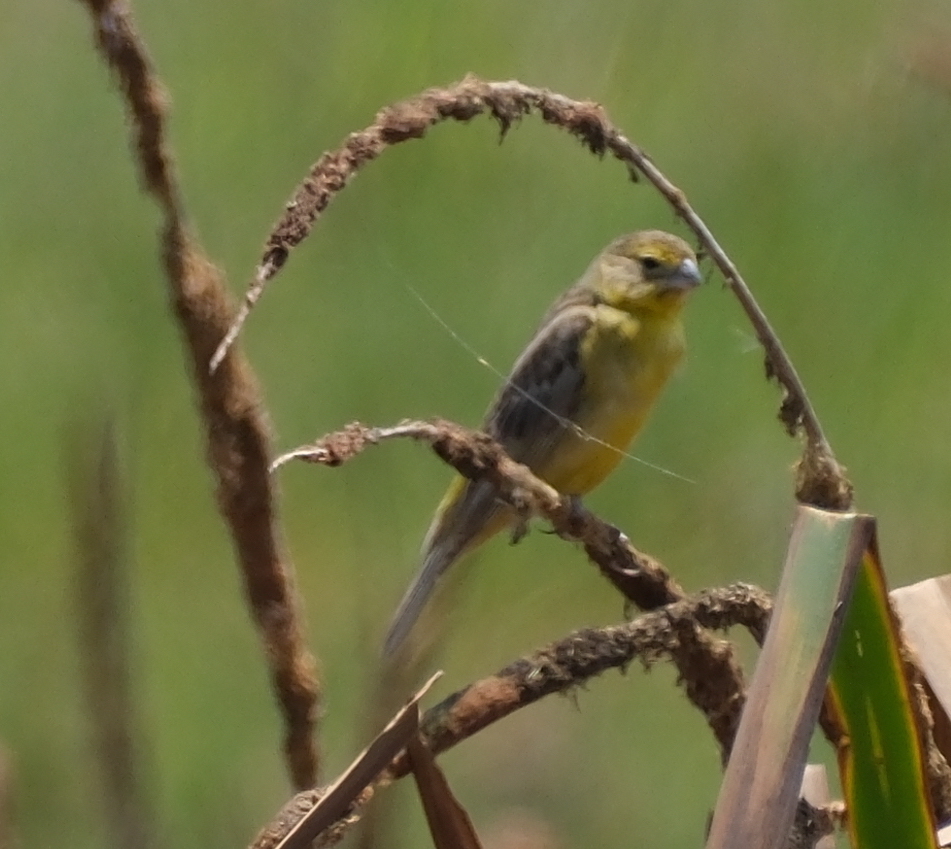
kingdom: Animalia
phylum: Chordata
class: Aves
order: Passeriformes
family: Thraupidae
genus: Sicalis
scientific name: Sicalis luteola
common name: Grassland yellow-finch
